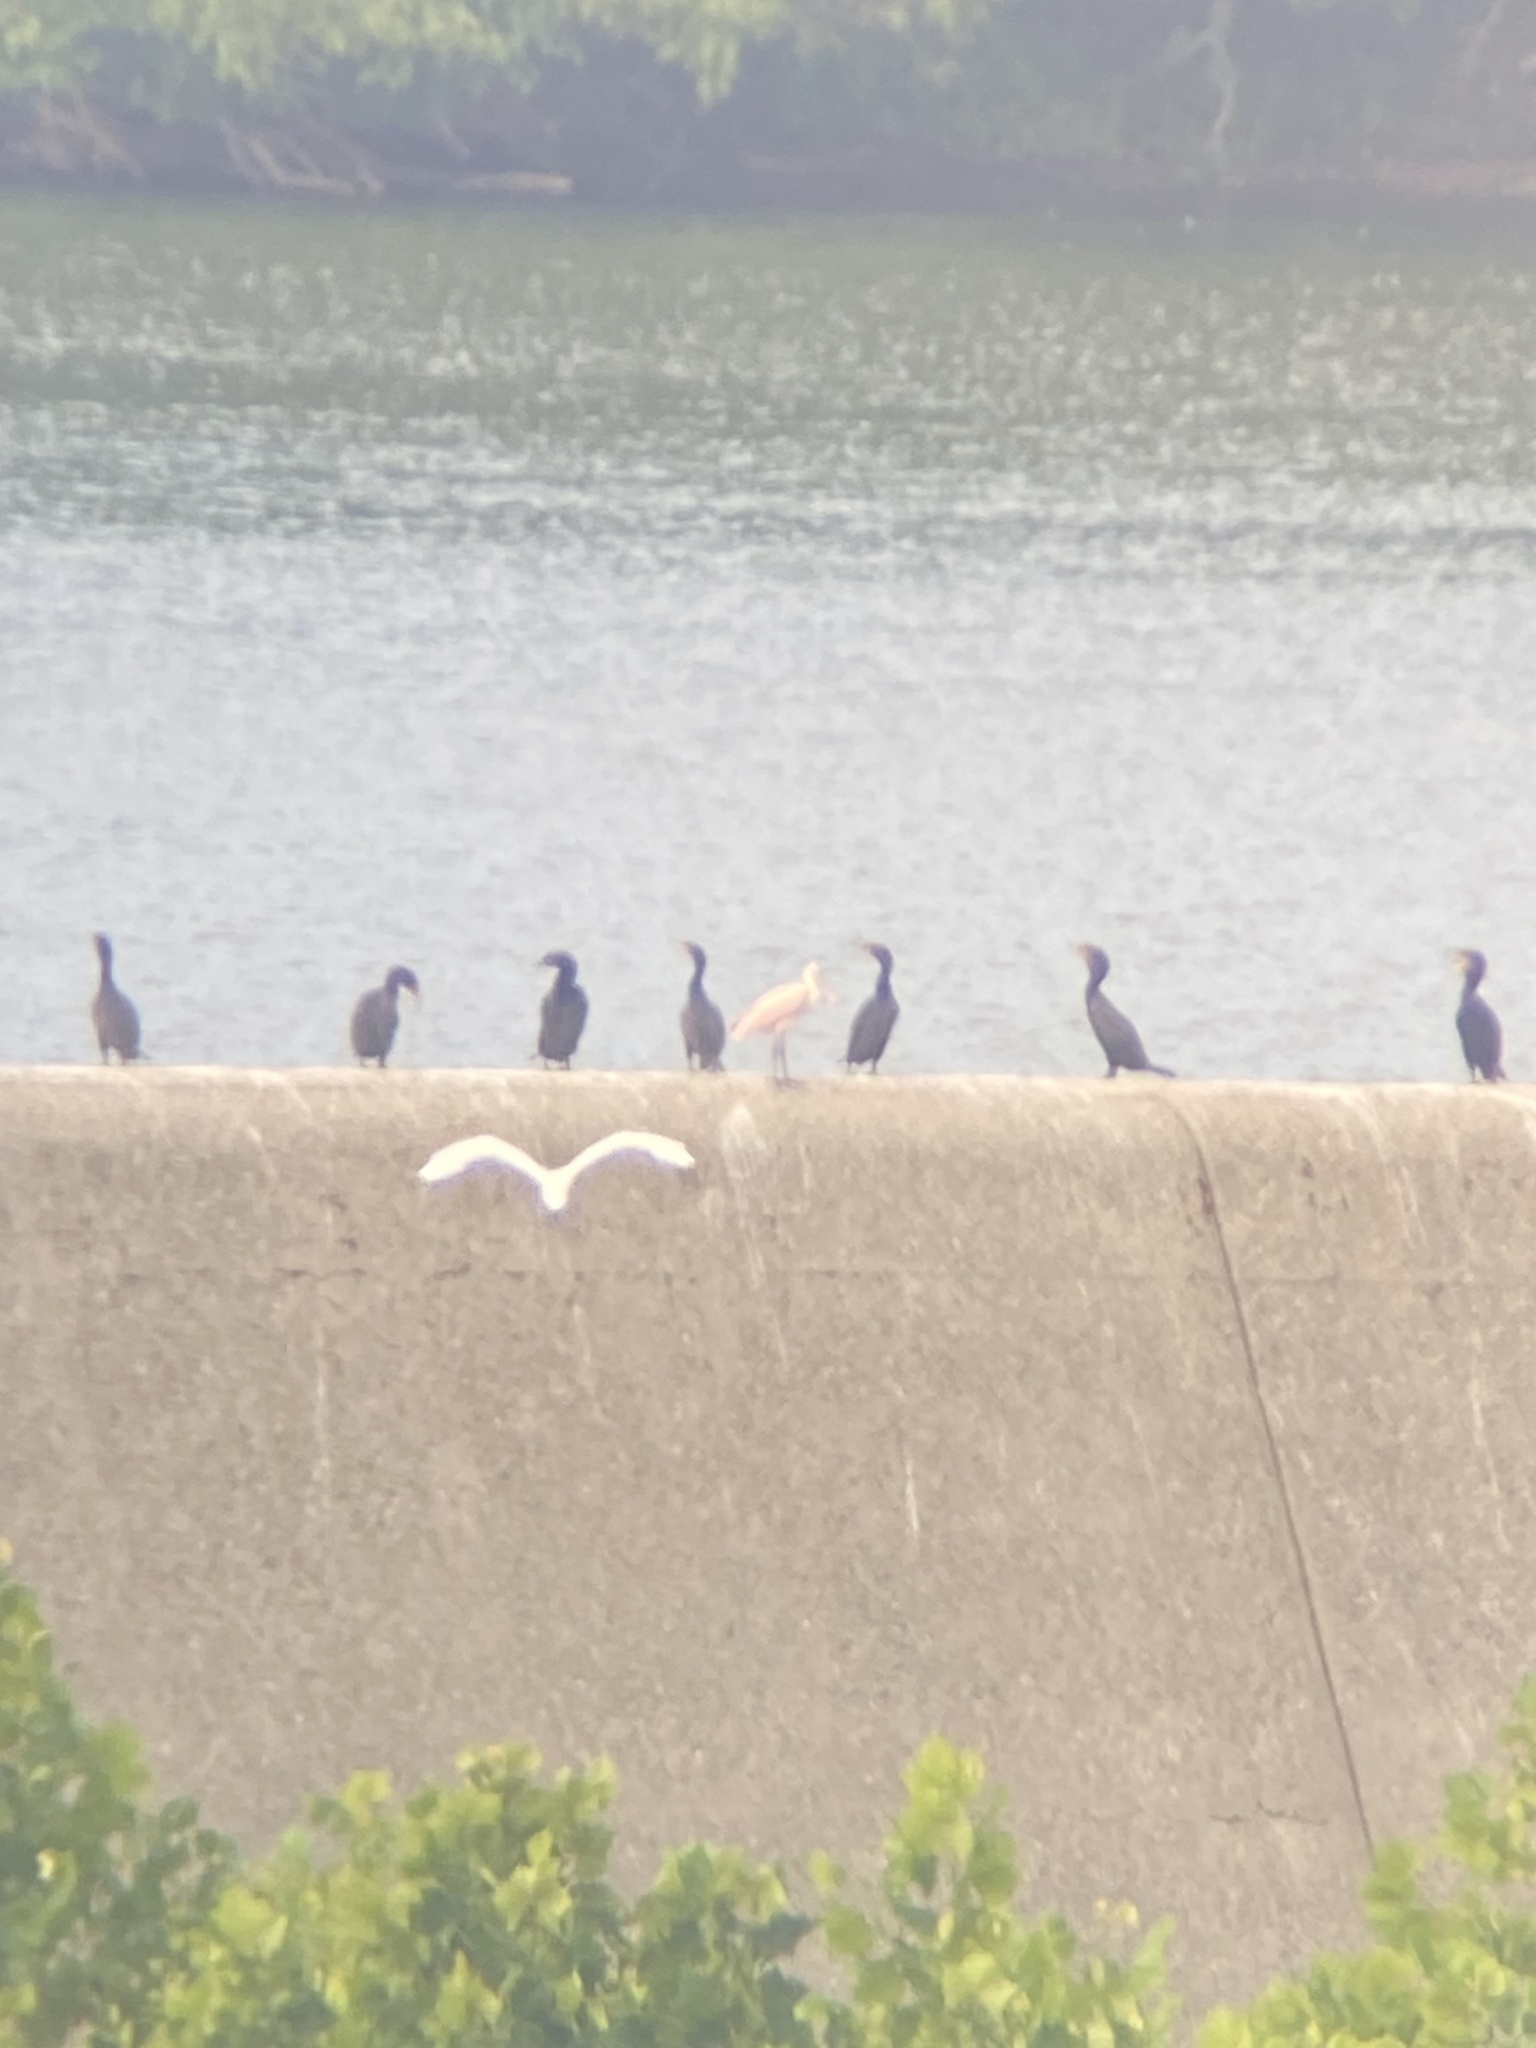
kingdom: Animalia
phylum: Chordata
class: Aves
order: Pelecaniformes
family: Ardeidae
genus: Ardea
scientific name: Ardea alba
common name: Great egret
